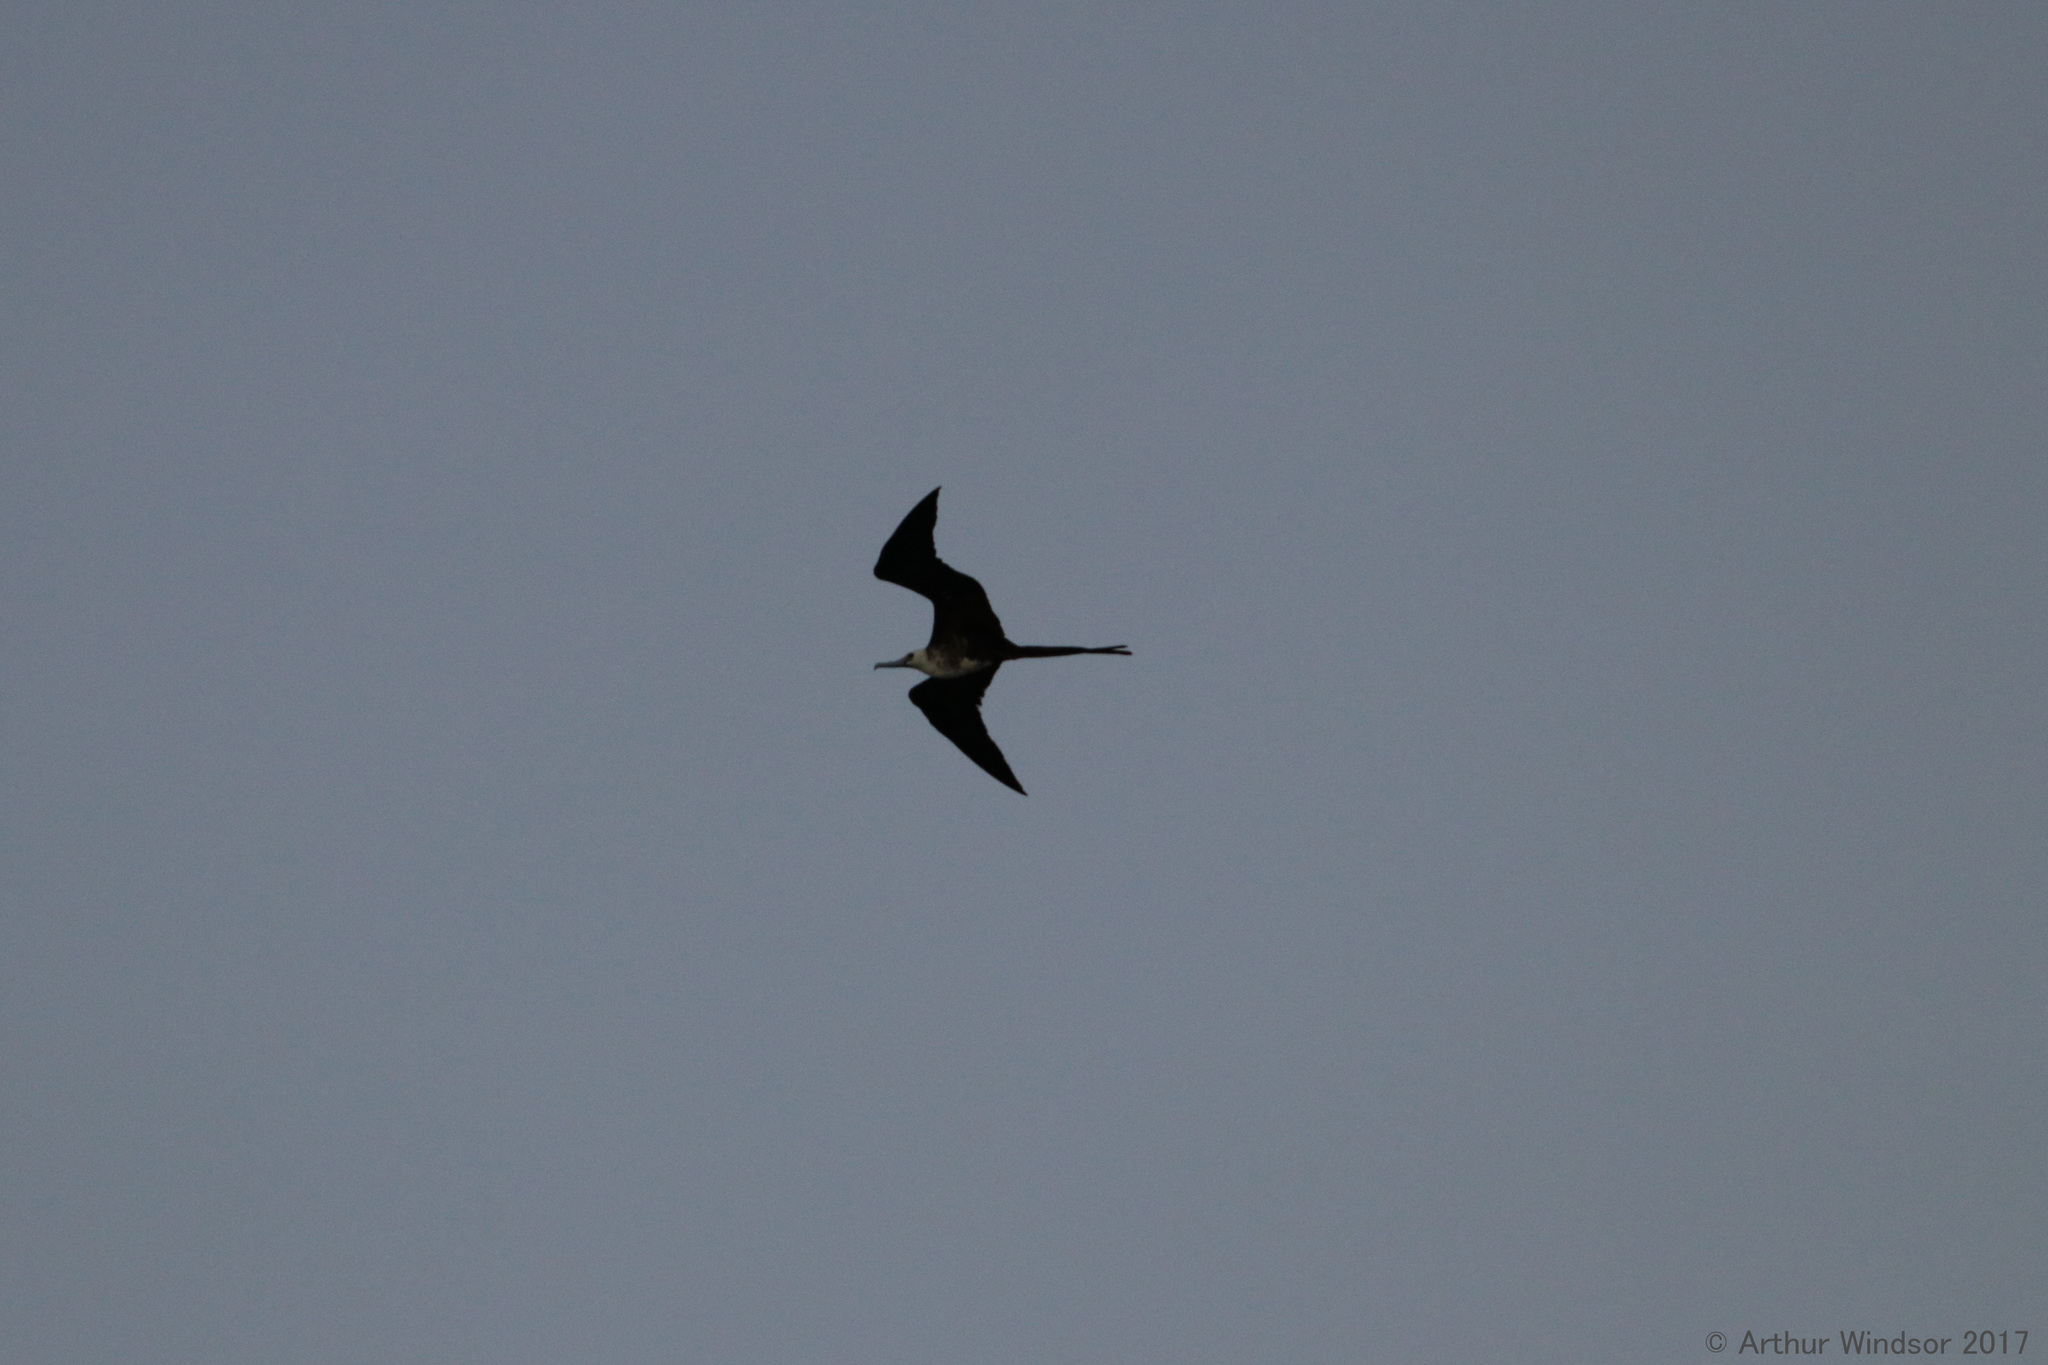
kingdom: Animalia
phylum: Chordata
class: Aves
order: Suliformes
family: Fregatidae
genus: Fregata
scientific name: Fregata magnificens
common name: Magnificent frigatebird
